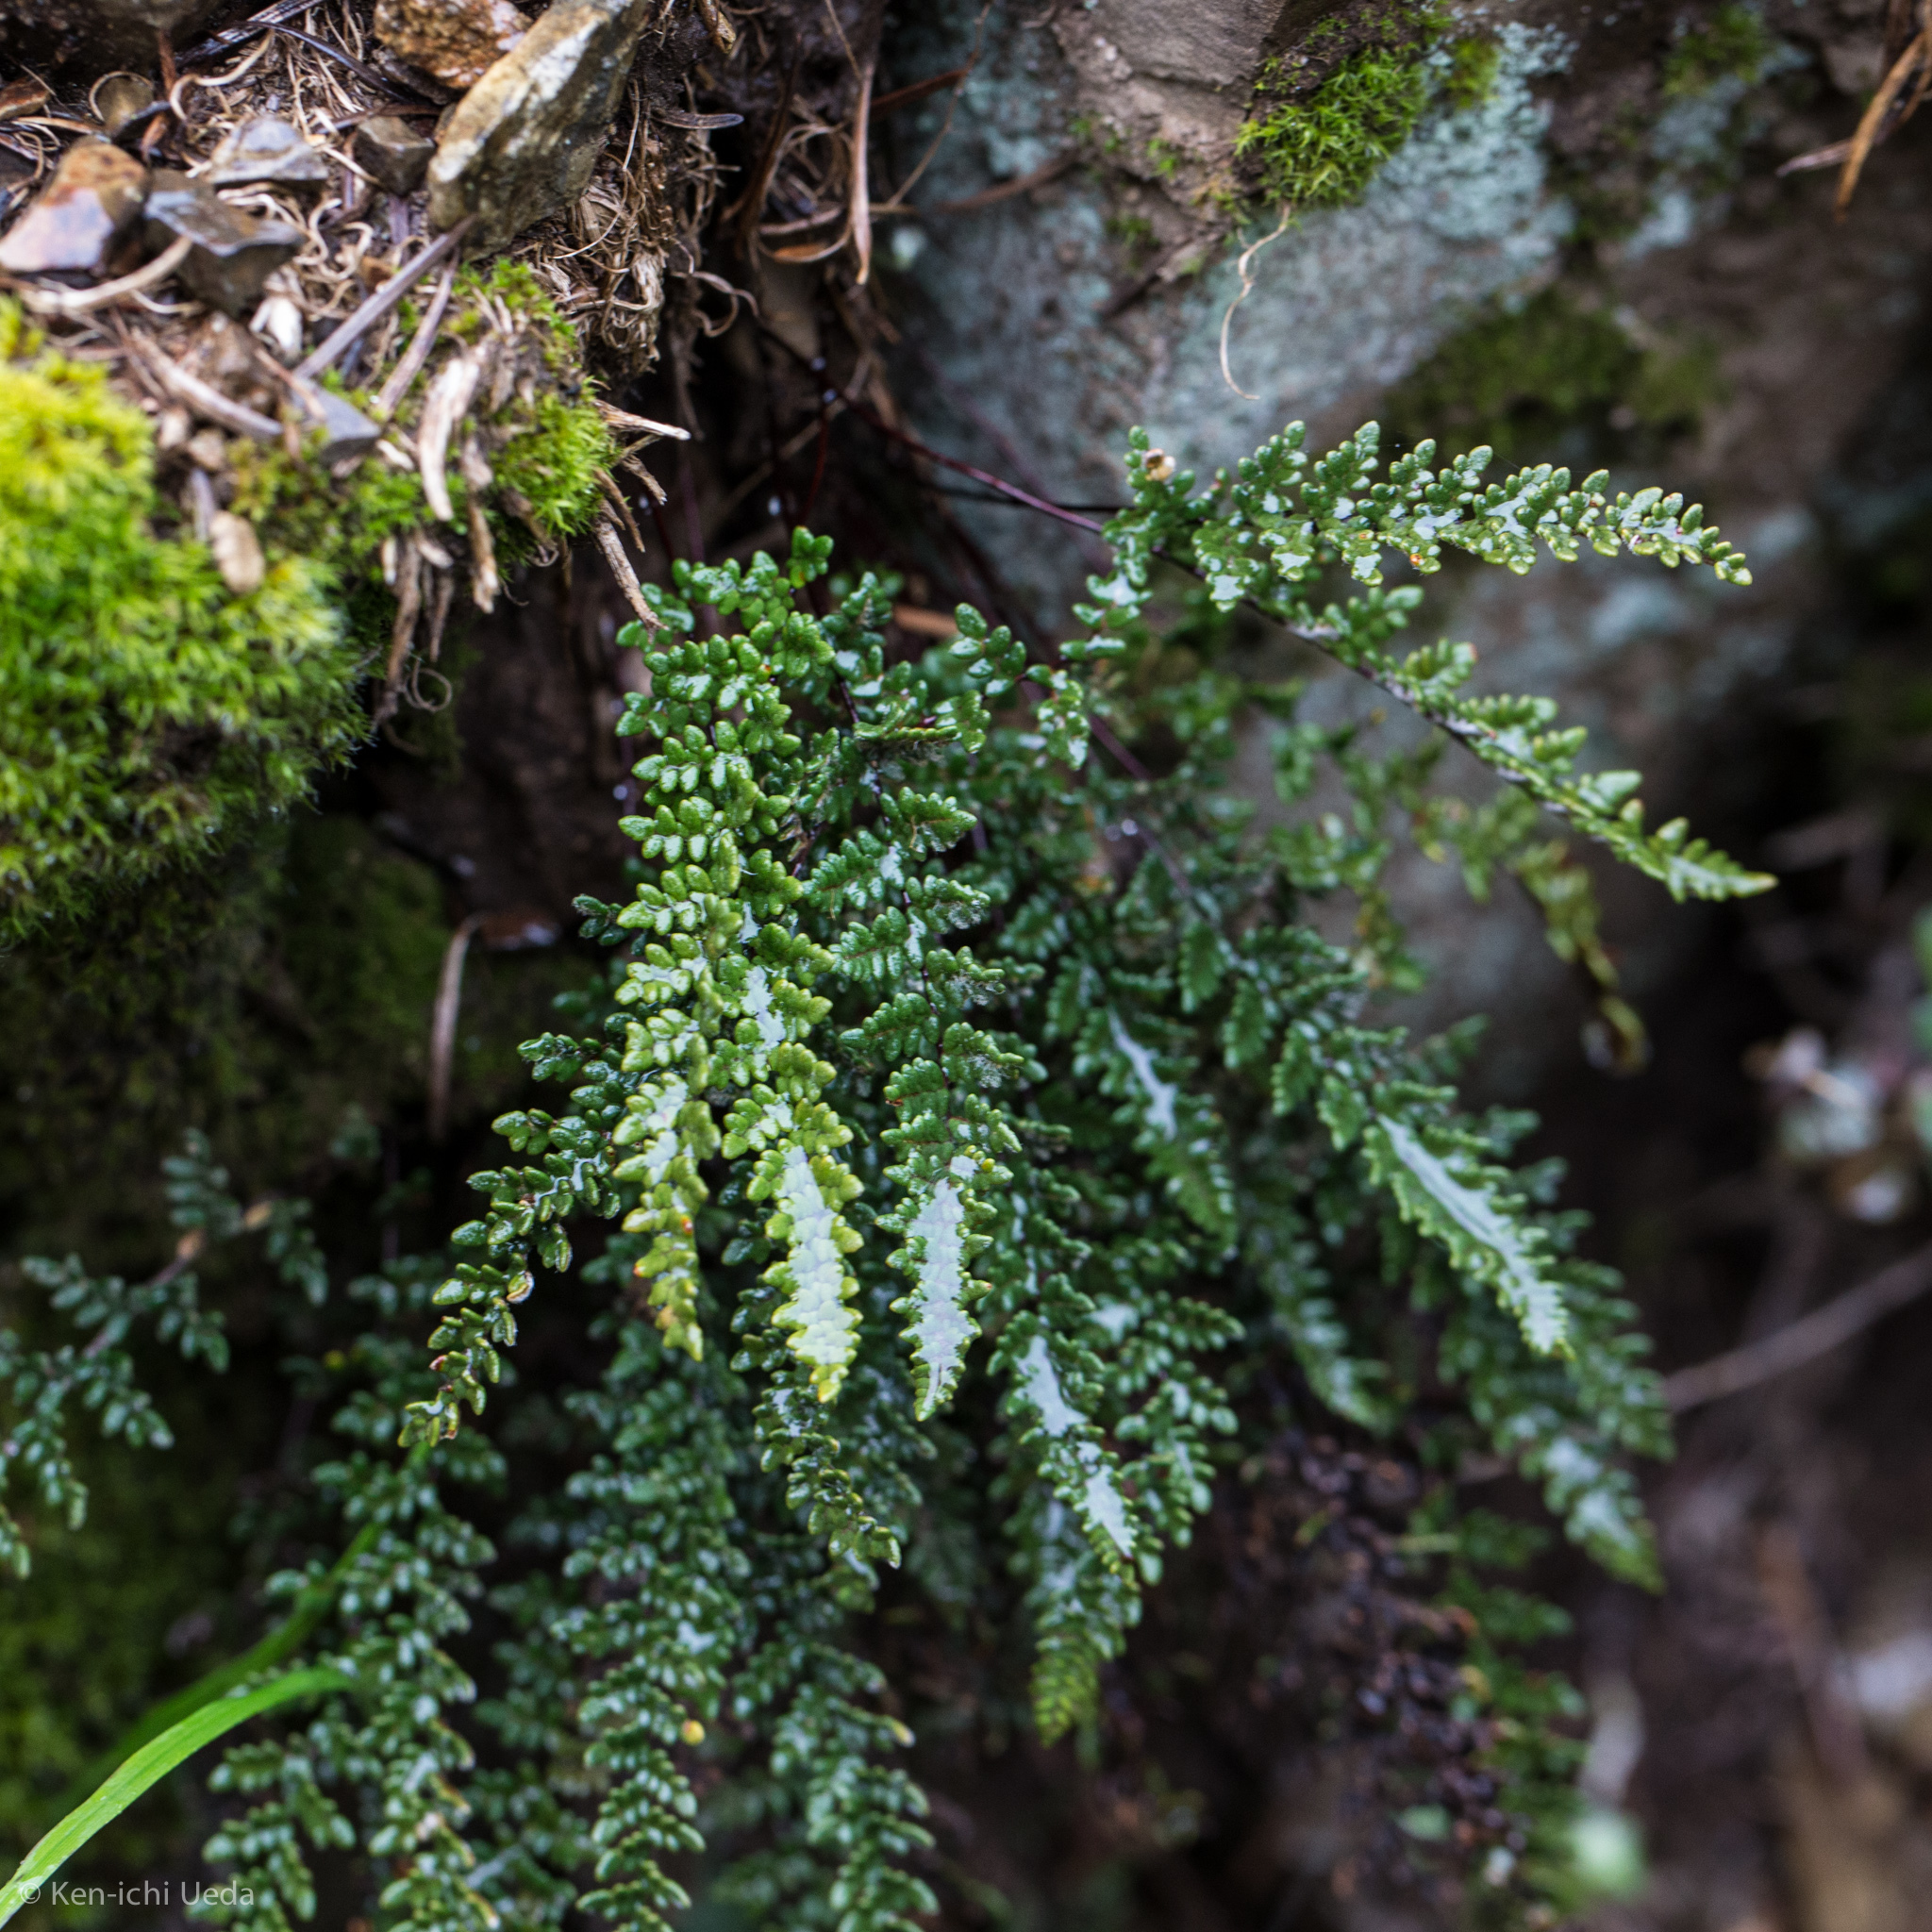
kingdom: Plantae
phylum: Tracheophyta
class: Polypodiopsida
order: Polypodiales
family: Pteridaceae
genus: Myriopteris
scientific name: Myriopteris gracillima
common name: Lace fern
